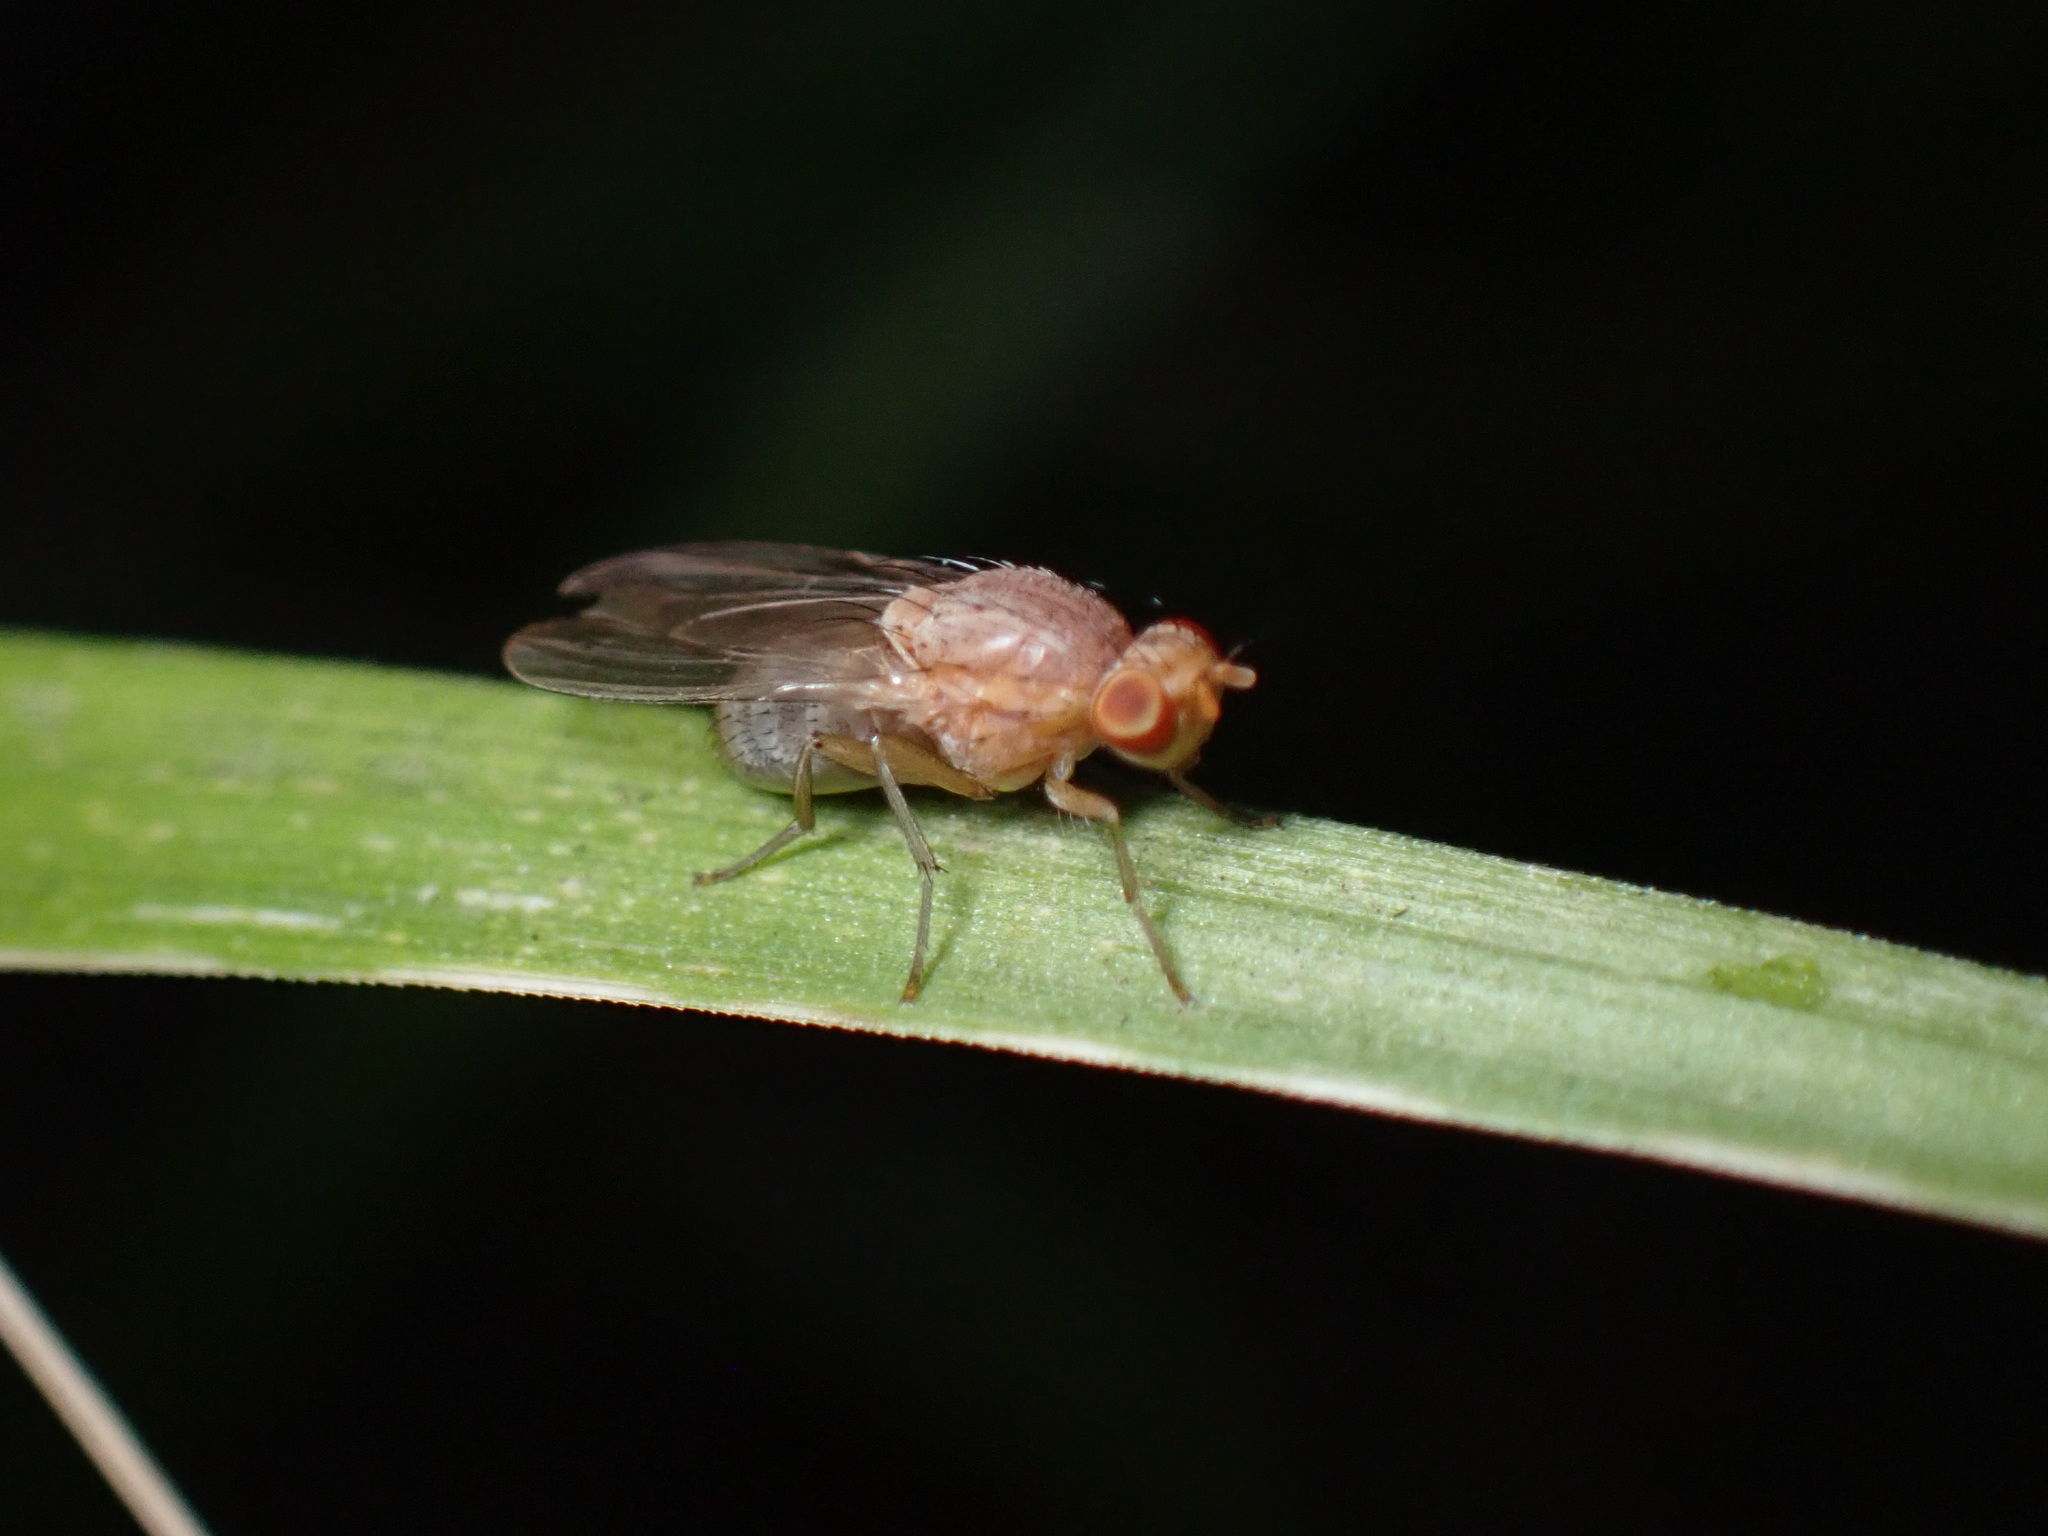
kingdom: Animalia
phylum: Arthropoda
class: Insecta
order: Diptera
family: Lauxaniidae
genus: Minettia
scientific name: Minettia flaveola
